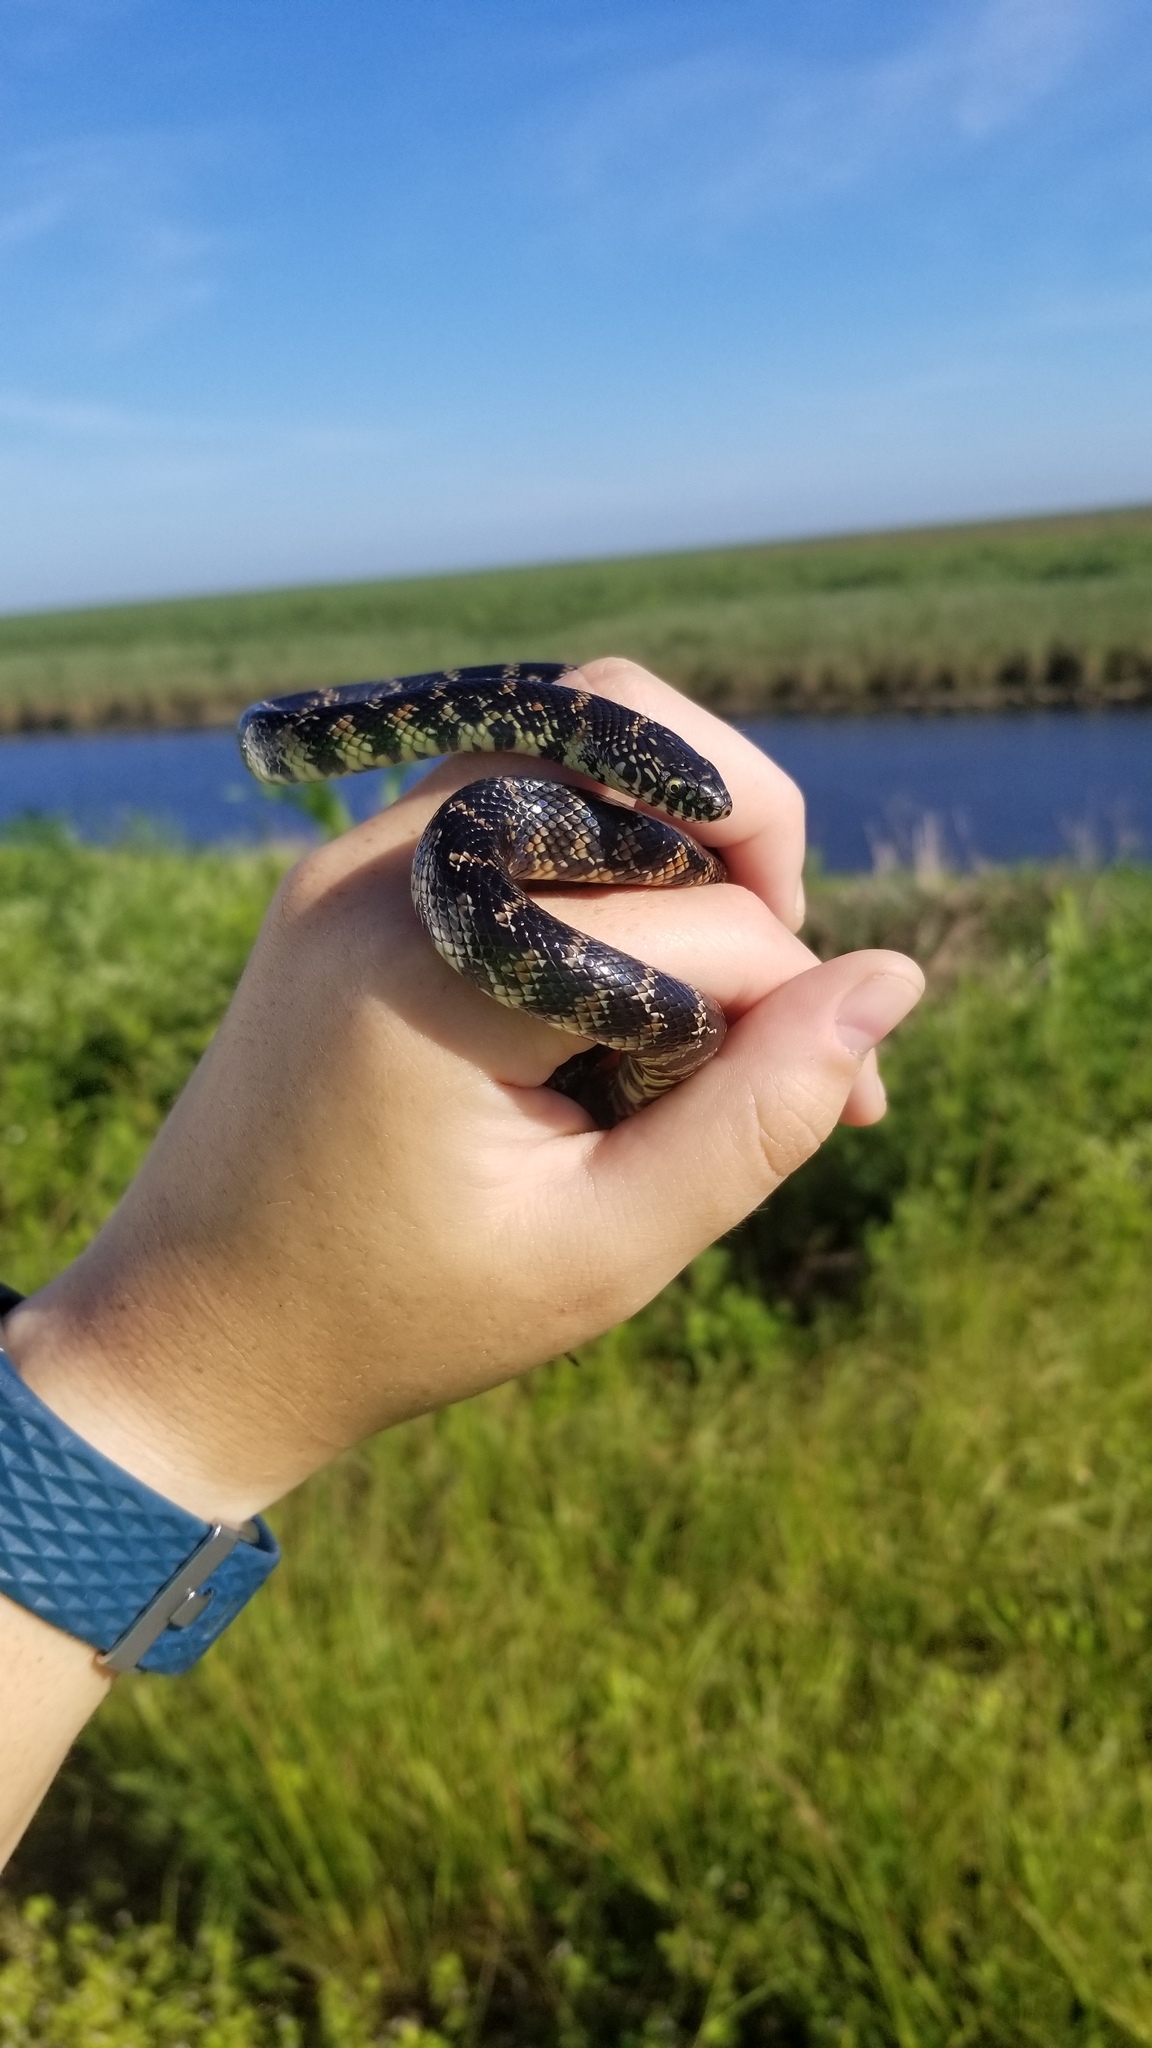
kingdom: Animalia
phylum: Chordata
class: Squamata
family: Colubridae
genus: Lampropeltis
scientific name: Lampropeltis getula
